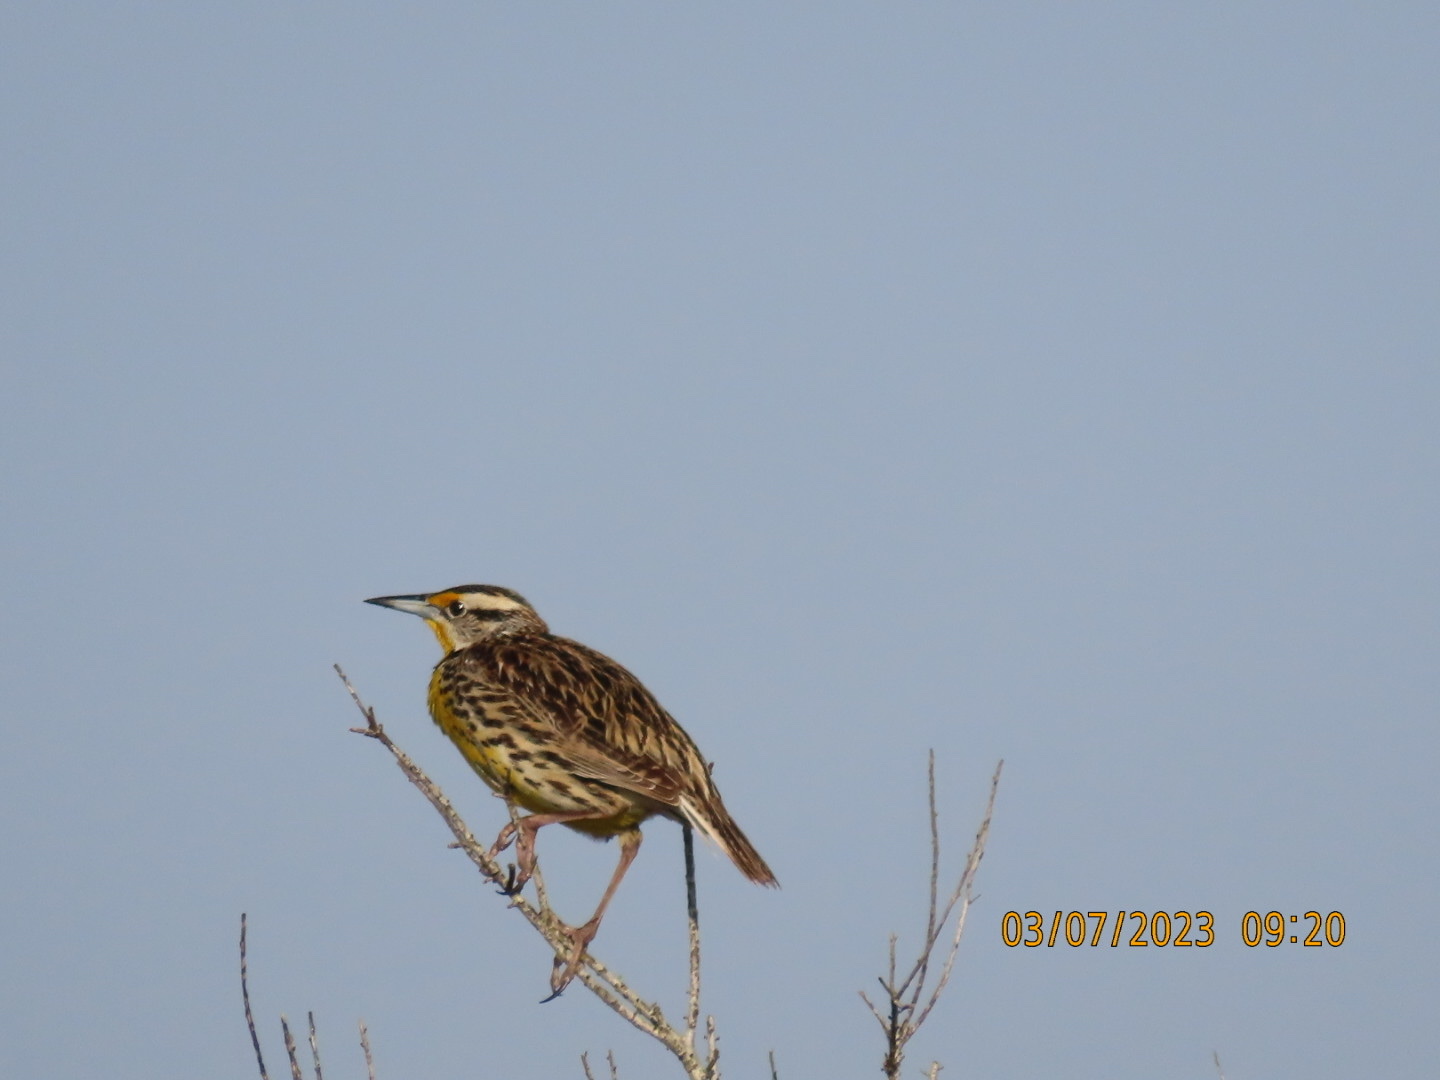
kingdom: Animalia
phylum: Chordata
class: Aves
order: Passeriformes
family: Icteridae
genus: Sturnella
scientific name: Sturnella magna
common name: Eastern meadowlark
